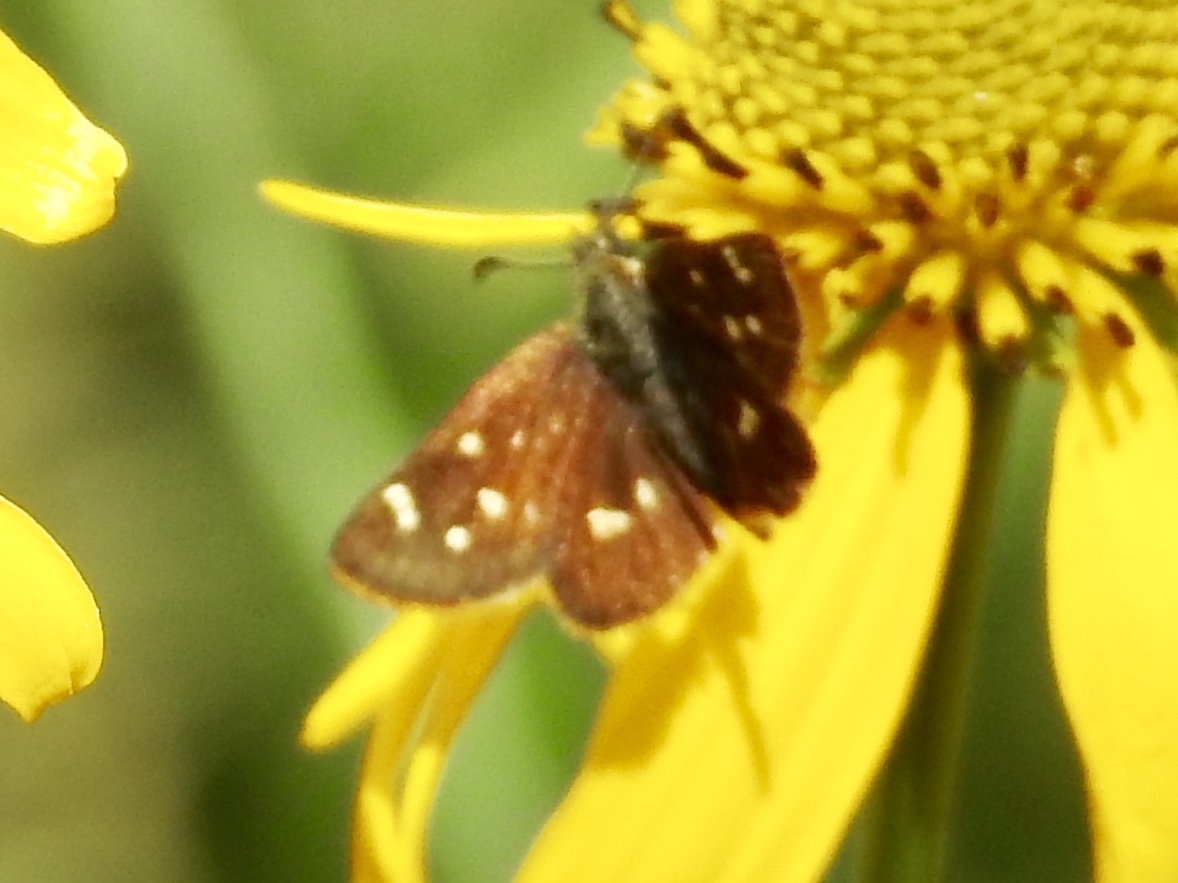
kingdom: Animalia
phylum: Arthropoda
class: Insecta
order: Lepidoptera
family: Hesperiidae
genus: Piruna
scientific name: Piruna polingii
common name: Four-spotted skipperling
